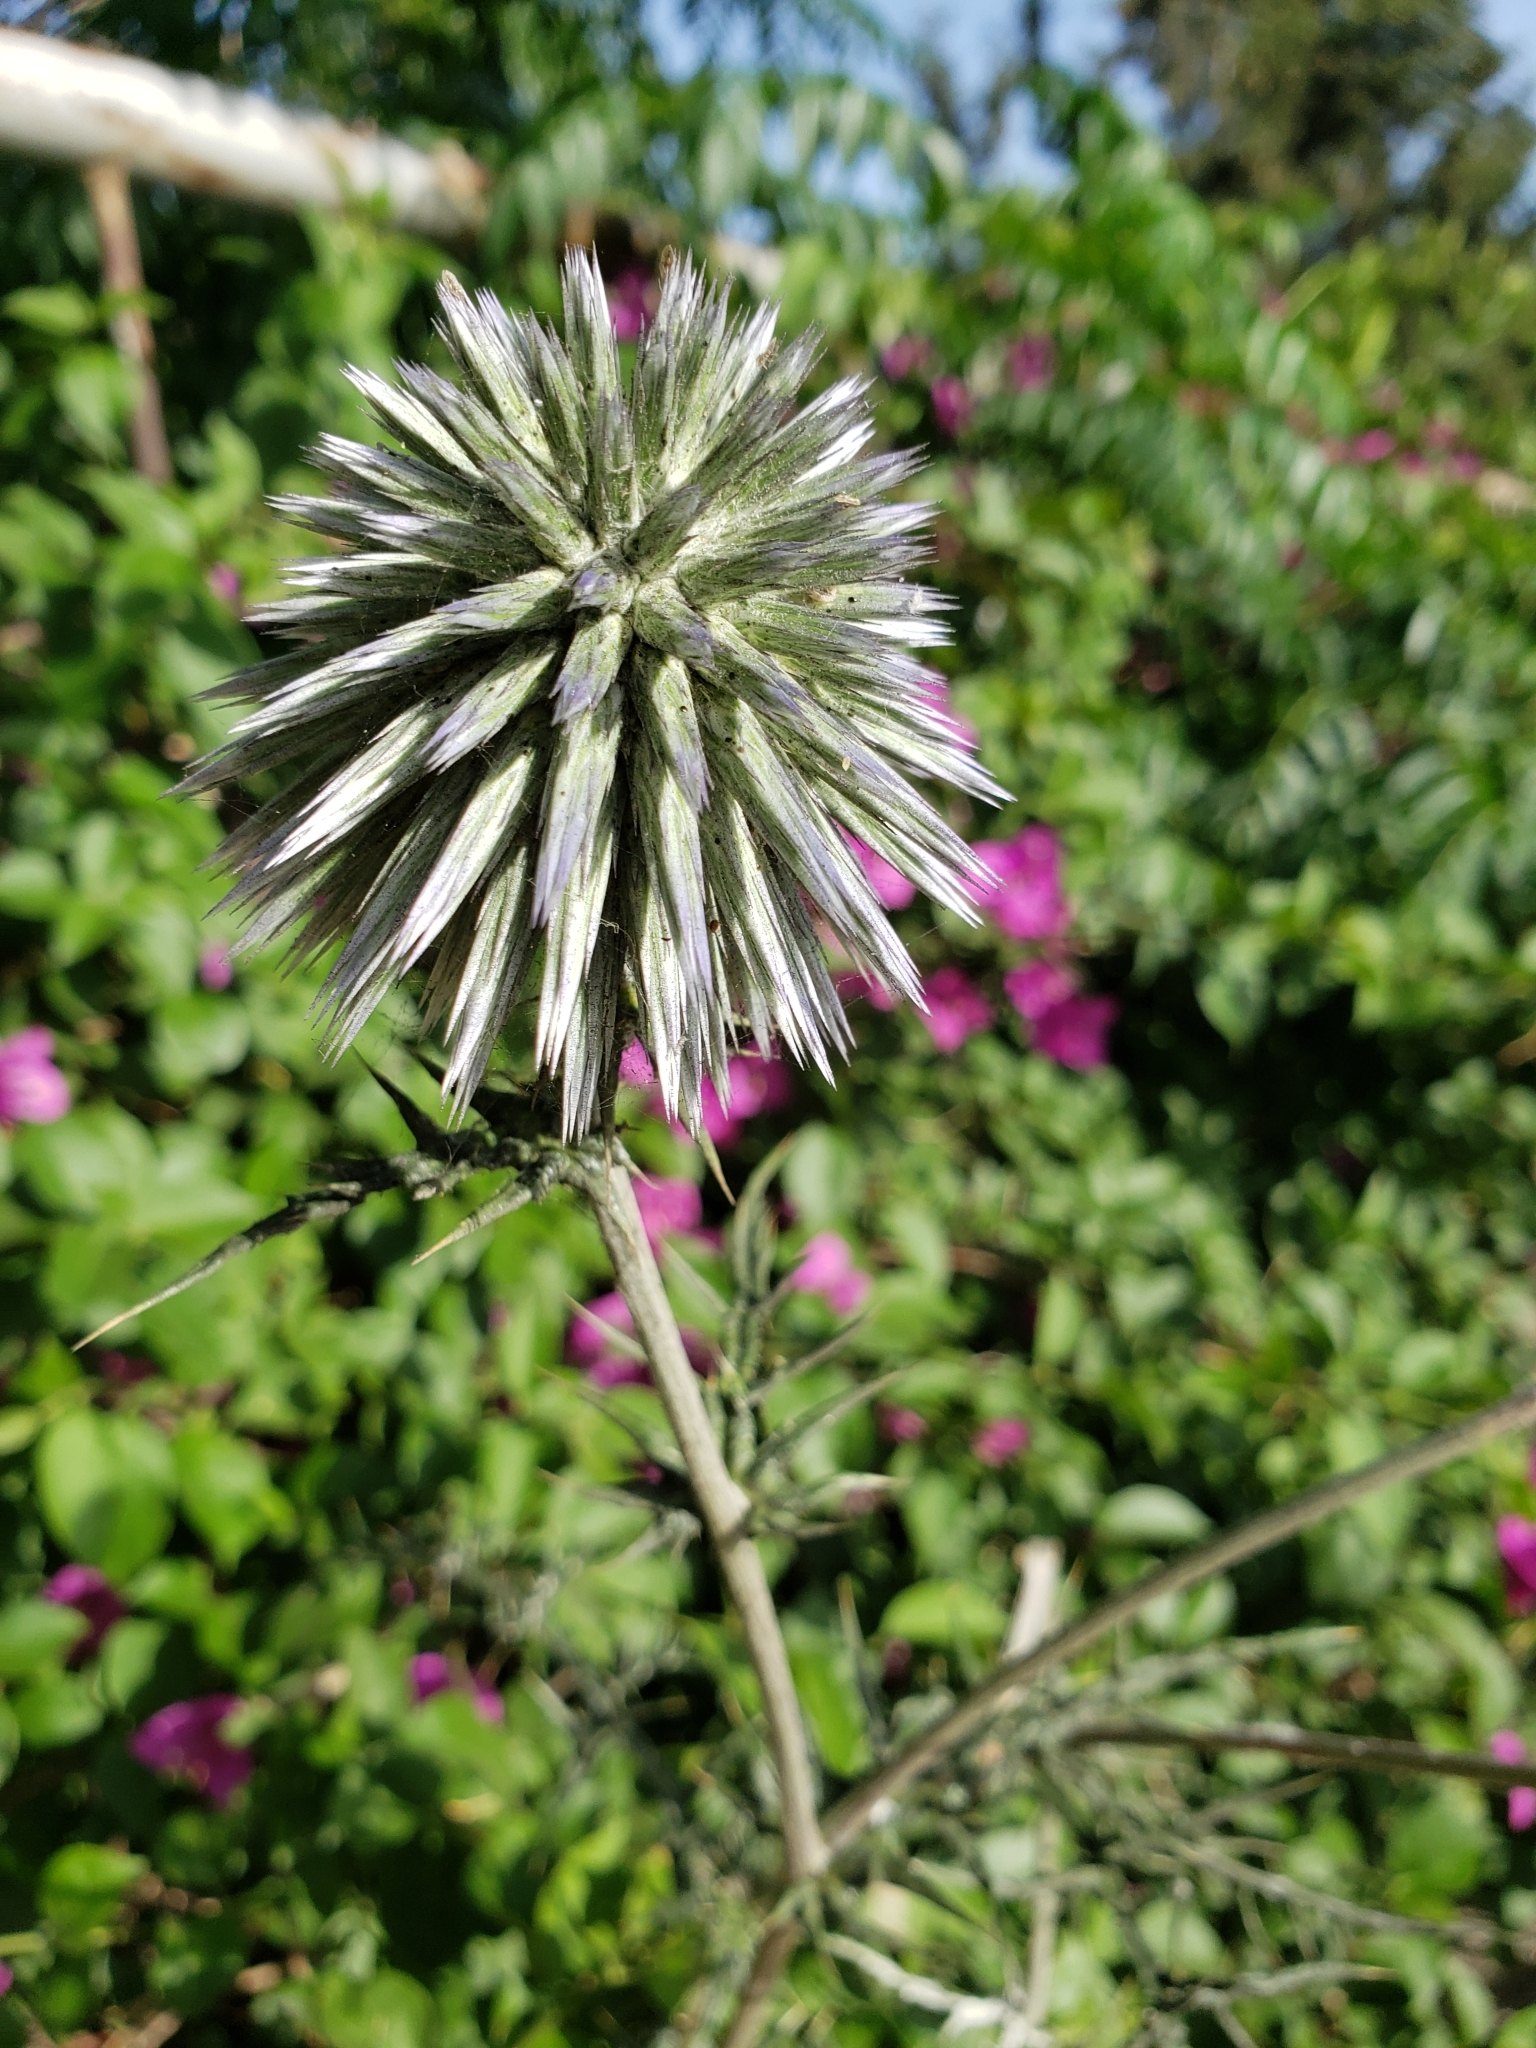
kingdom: Plantae
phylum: Tracheophyta
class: Magnoliopsida
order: Asterales
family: Asteraceae
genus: Echinops
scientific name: Echinops adenocaulos
